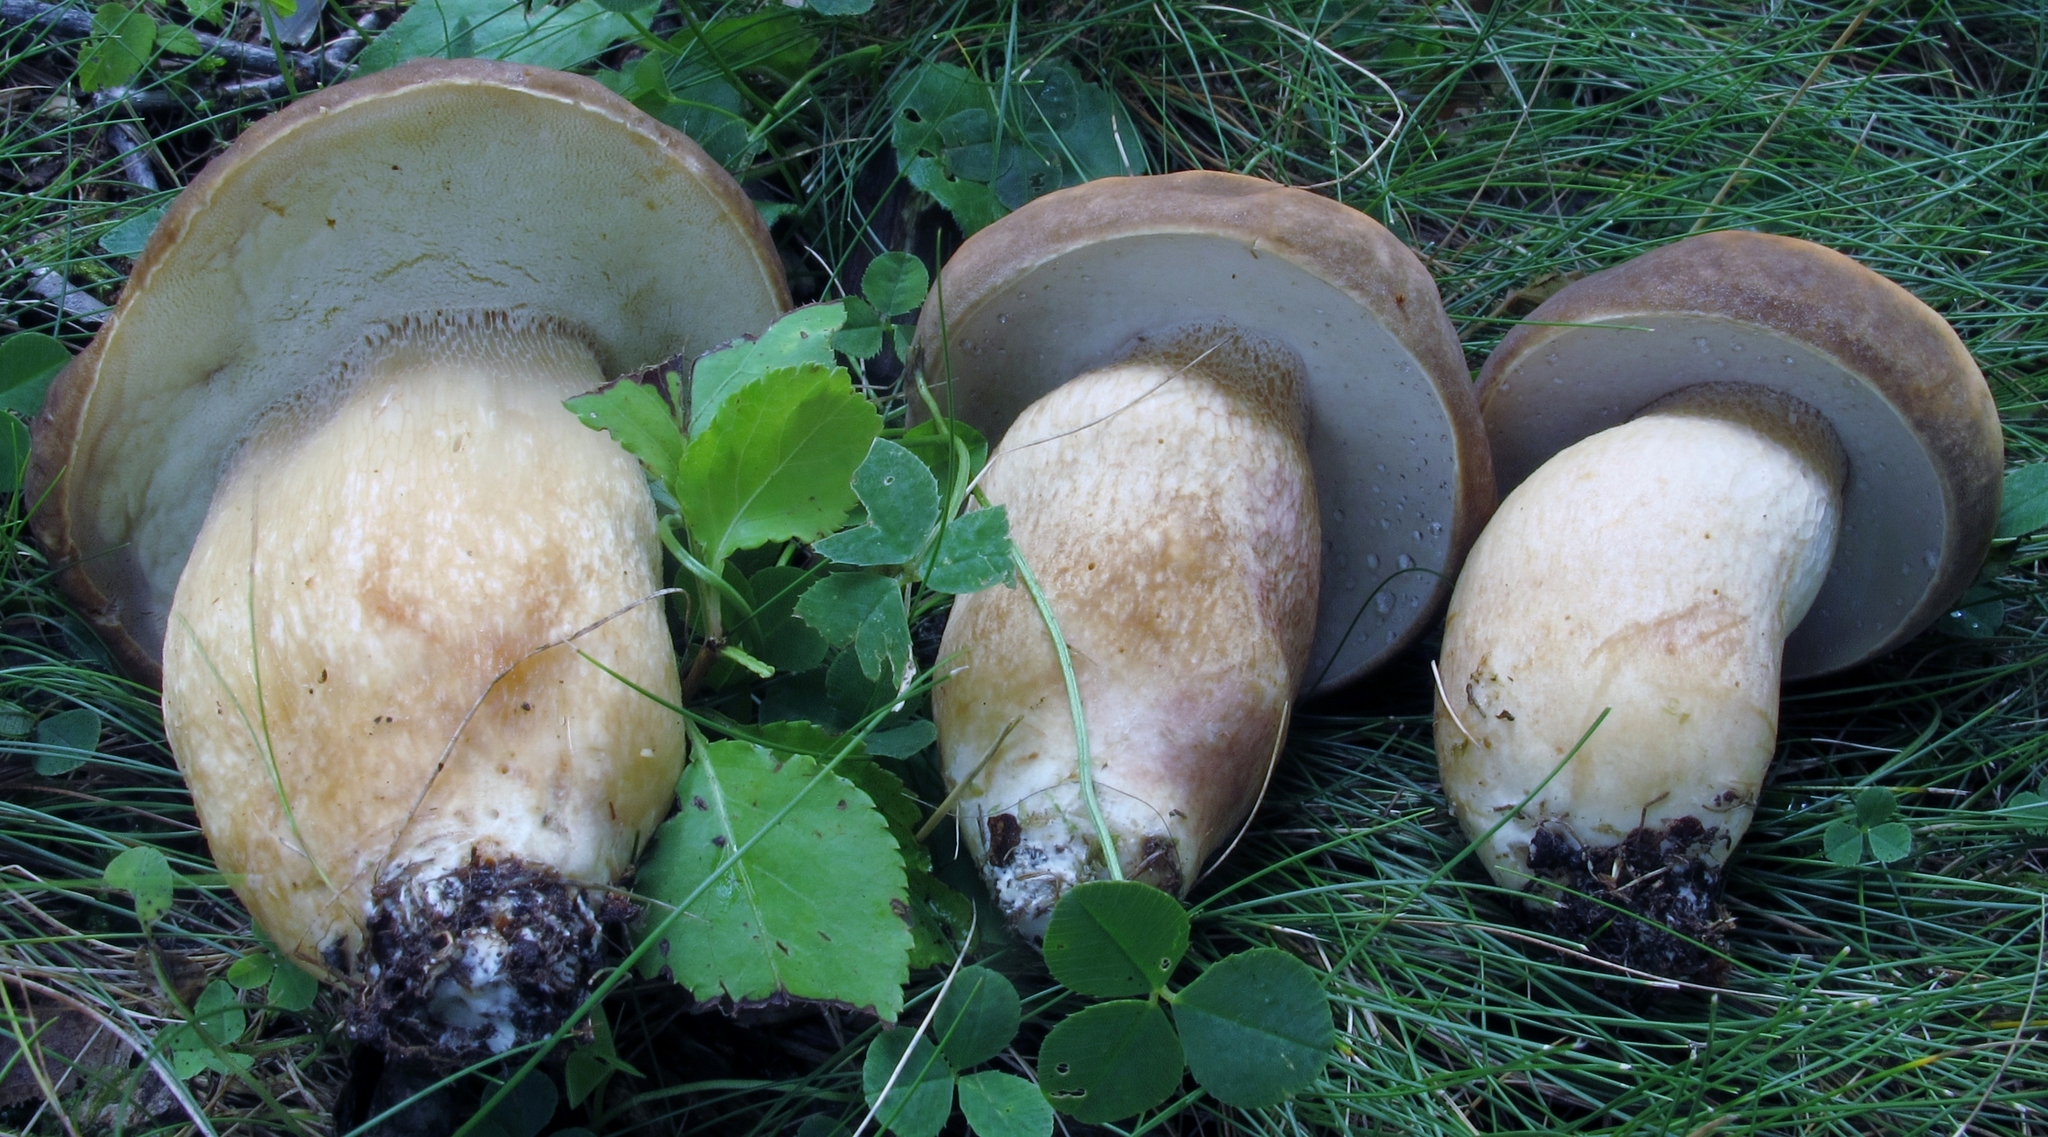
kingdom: Fungi
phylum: Basidiomycota
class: Agaricomycetes
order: Boletales
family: Boletaceae
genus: Boletus
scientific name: Boletus atkinsonii
